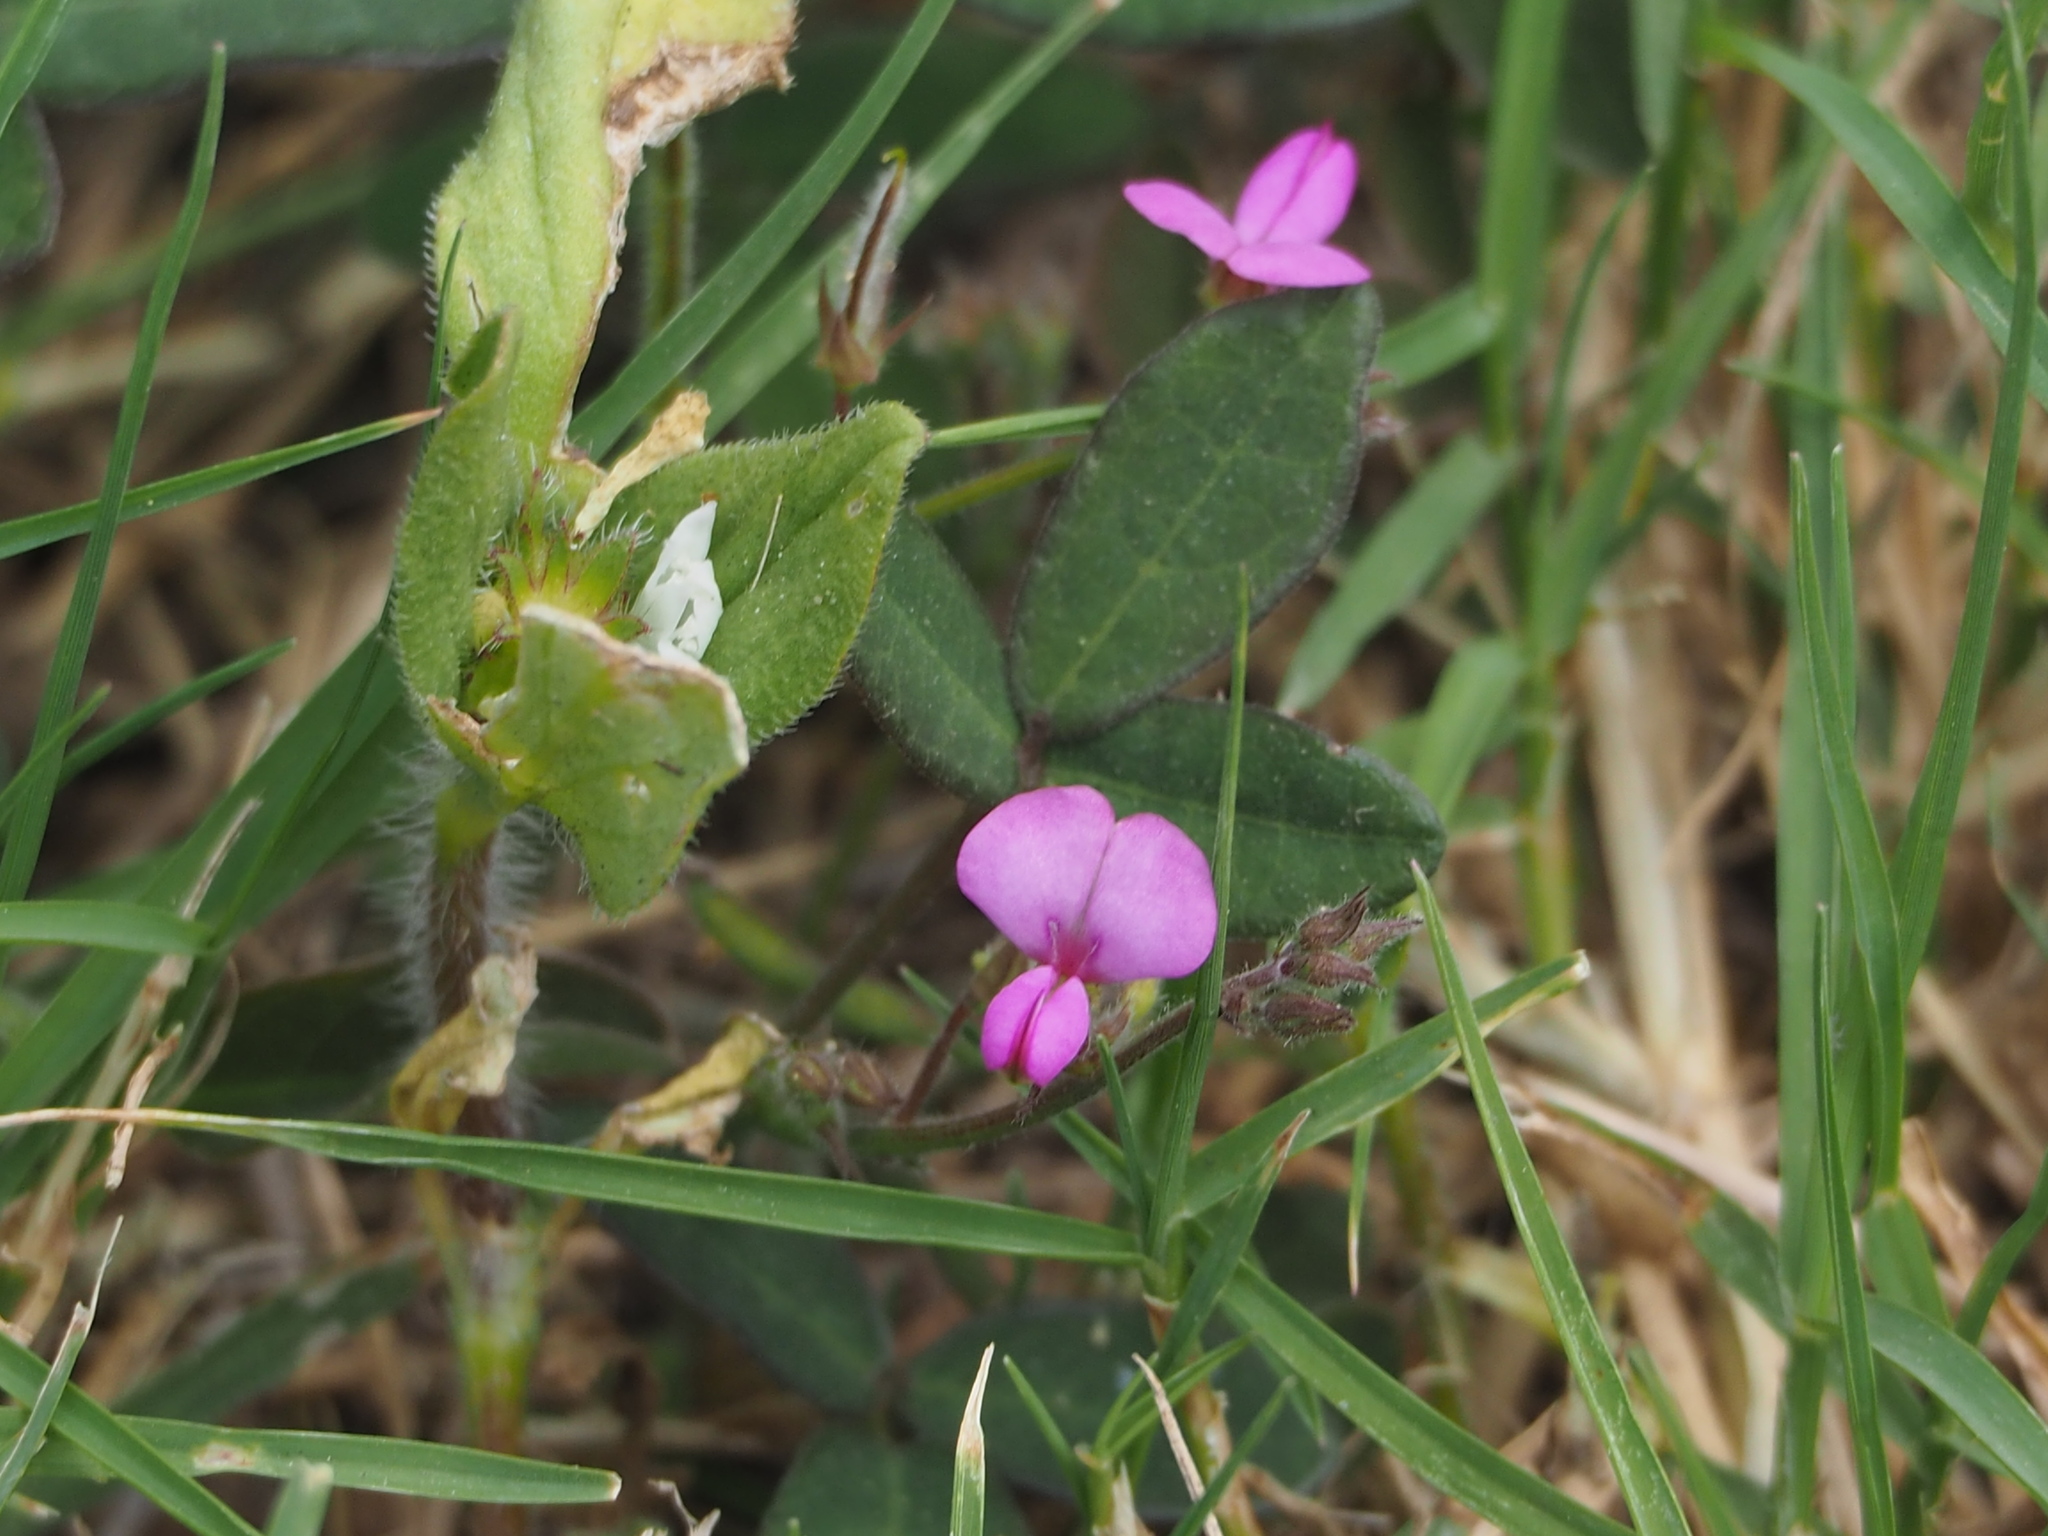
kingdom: Plantae
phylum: Tracheophyta
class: Magnoliopsida
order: Fabales
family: Fabaceae
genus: Desmodium
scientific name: Desmodium scorpiurus
